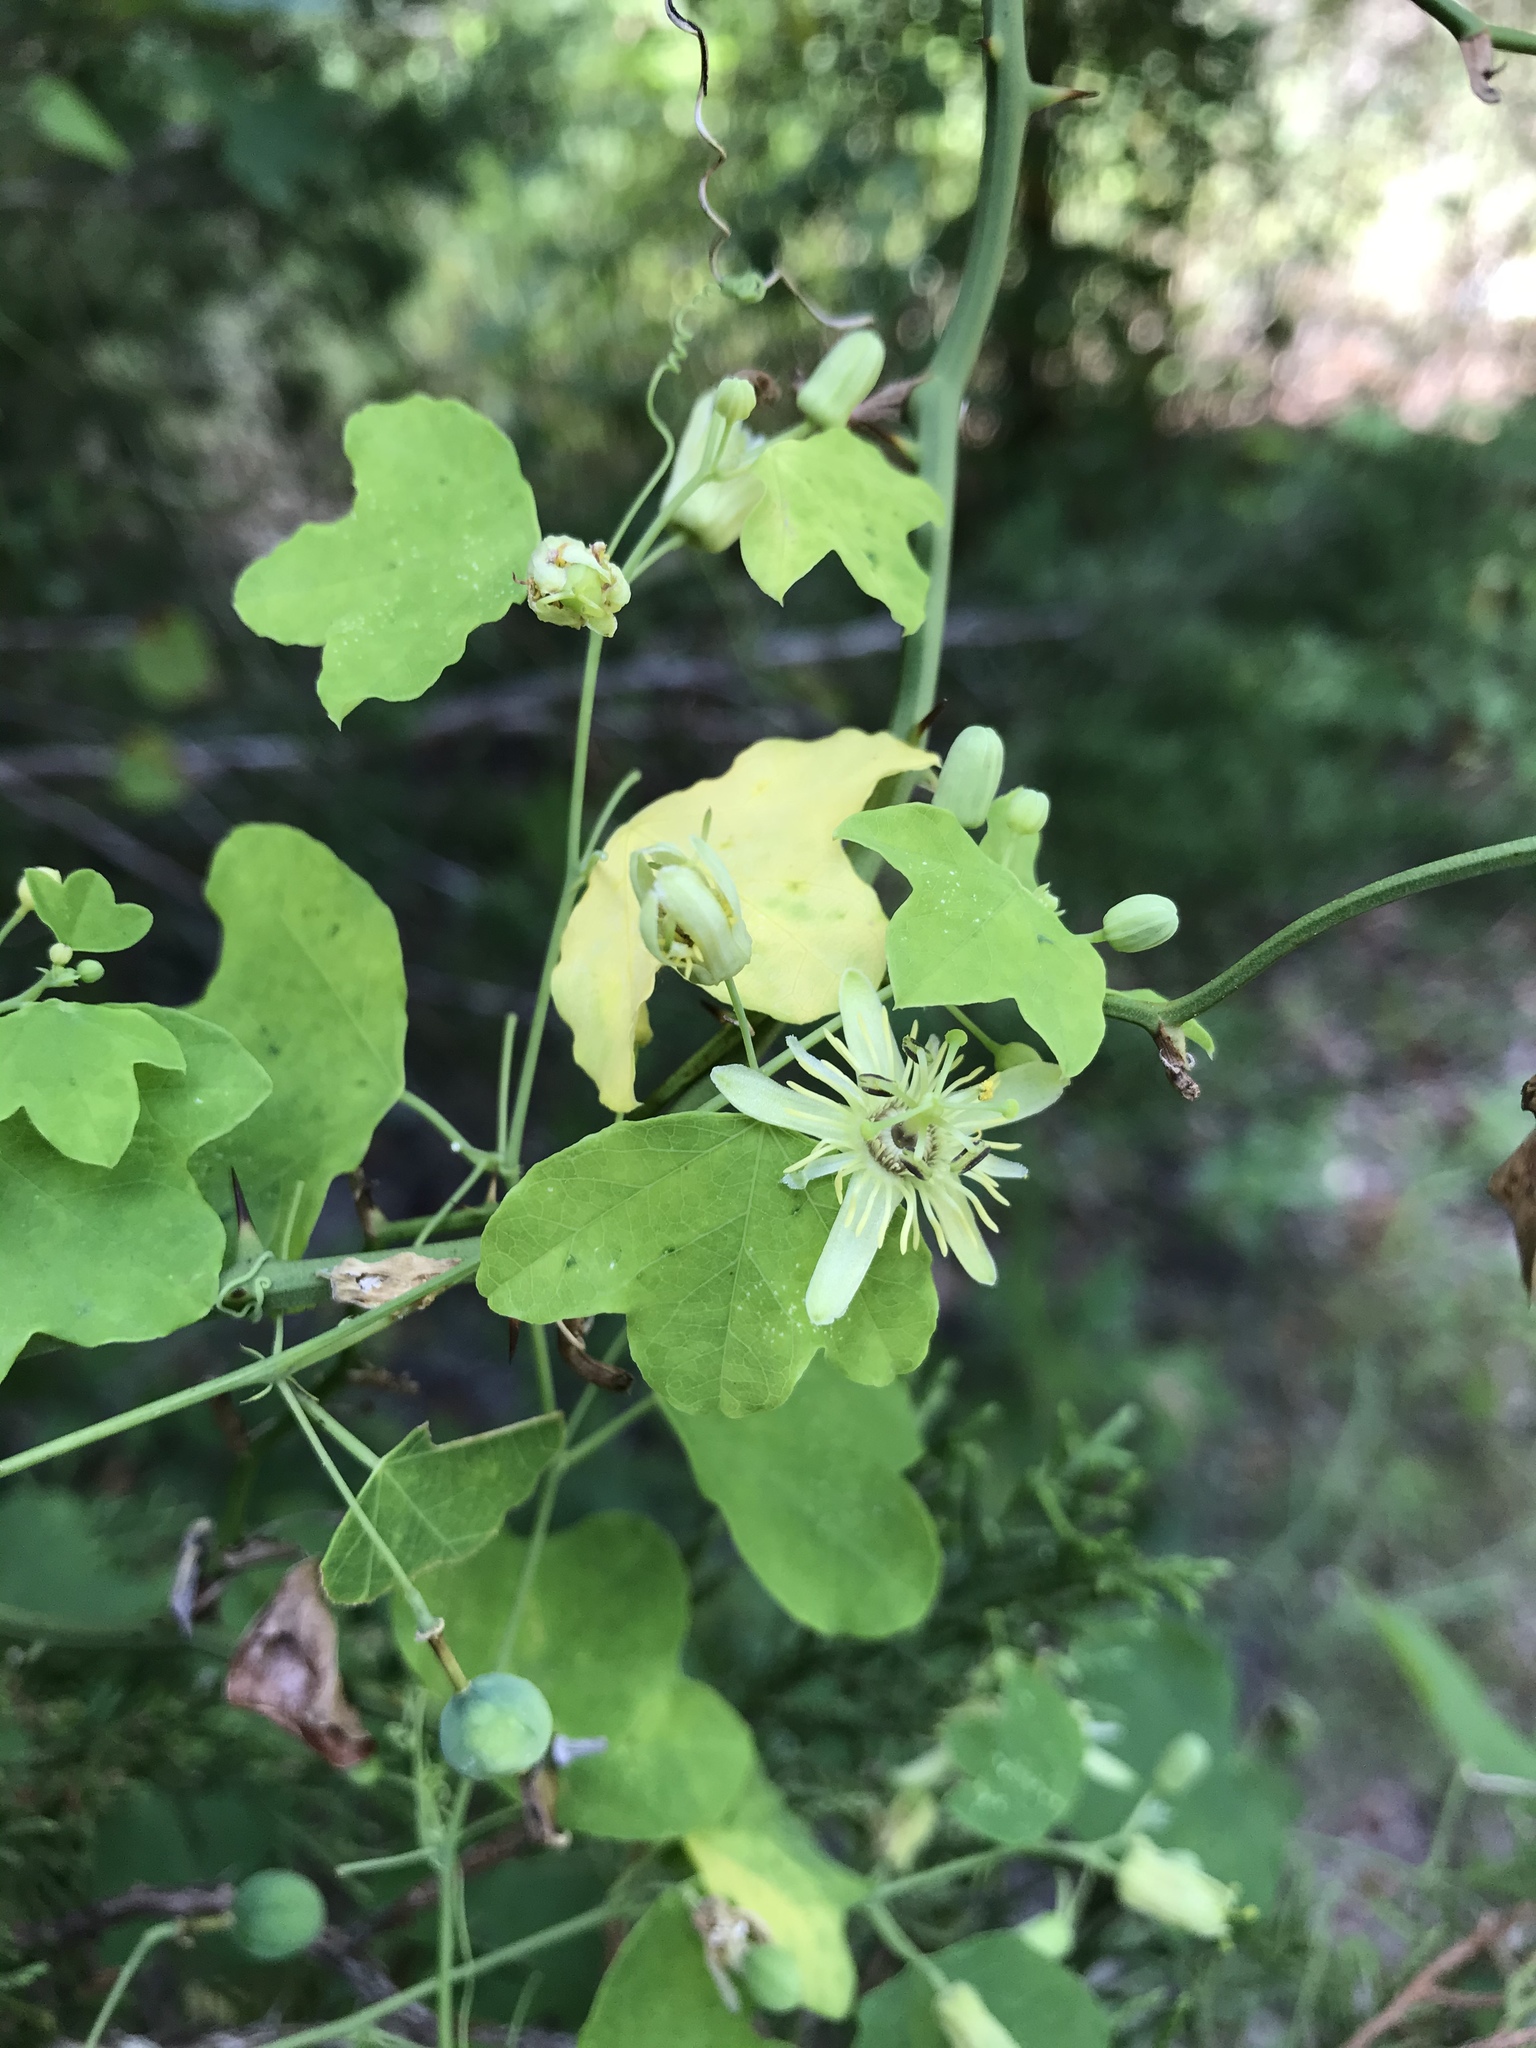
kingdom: Plantae
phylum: Tracheophyta
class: Magnoliopsida
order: Malpighiales
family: Passifloraceae
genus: Passiflora
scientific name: Passiflora lutea
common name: Yellow passionflower
